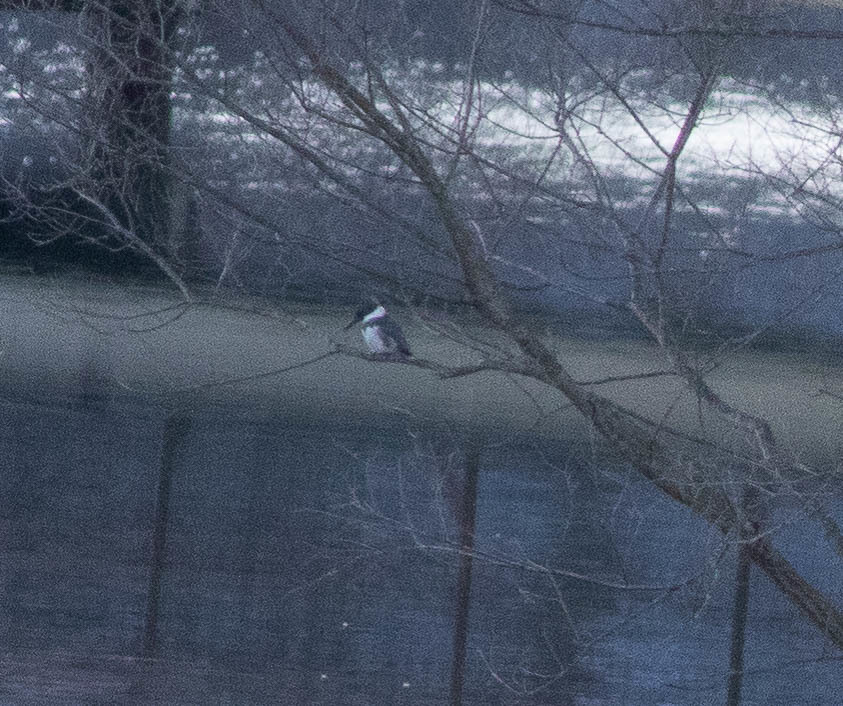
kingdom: Animalia
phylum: Chordata
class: Aves
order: Coraciiformes
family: Alcedinidae
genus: Megaceryle
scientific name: Megaceryle alcyon
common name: Belted kingfisher
